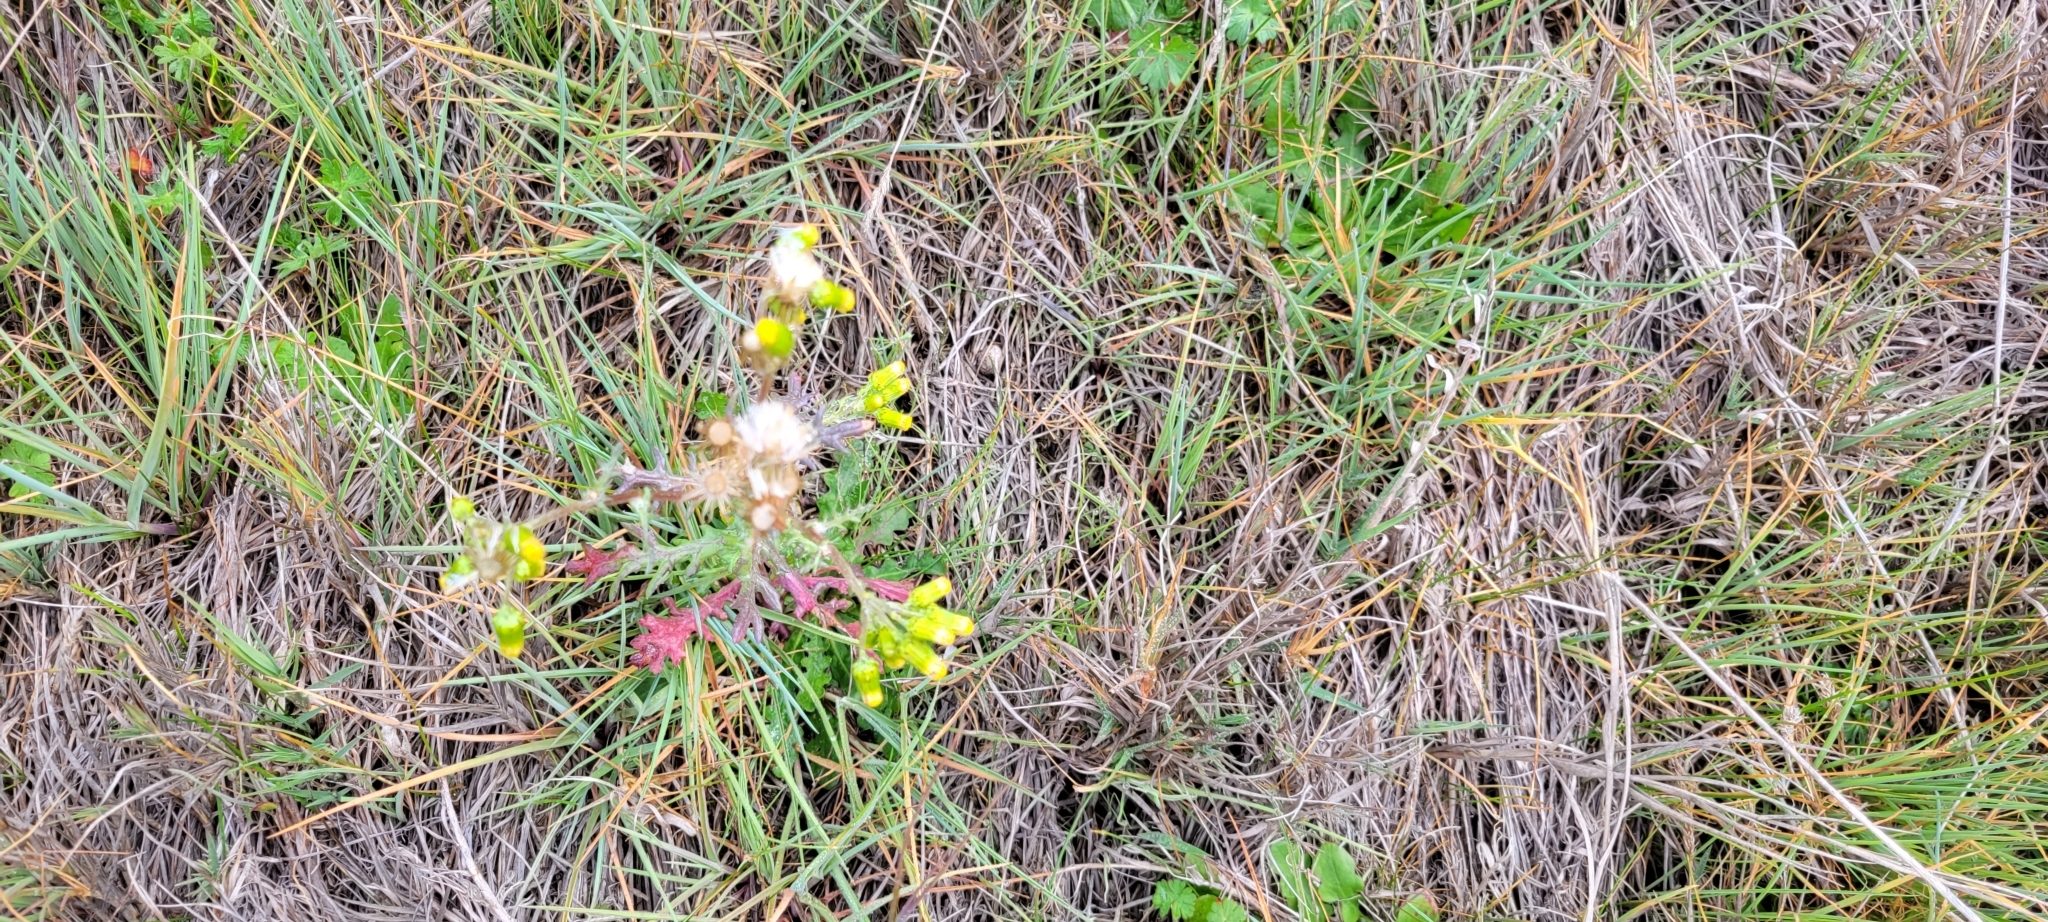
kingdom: Plantae
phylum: Tracheophyta
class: Magnoliopsida
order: Asterales
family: Asteraceae
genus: Senecio
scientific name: Senecio vulgaris
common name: Old-man-in-the-spring
